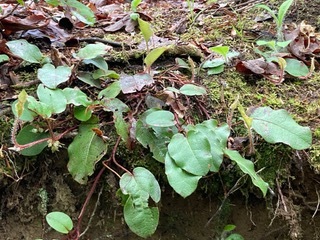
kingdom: Plantae
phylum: Tracheophyta
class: Magnoliopsida
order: Ericales
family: Ericaceae
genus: Epigaea
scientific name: Epigaea repens
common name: Gravelroot
